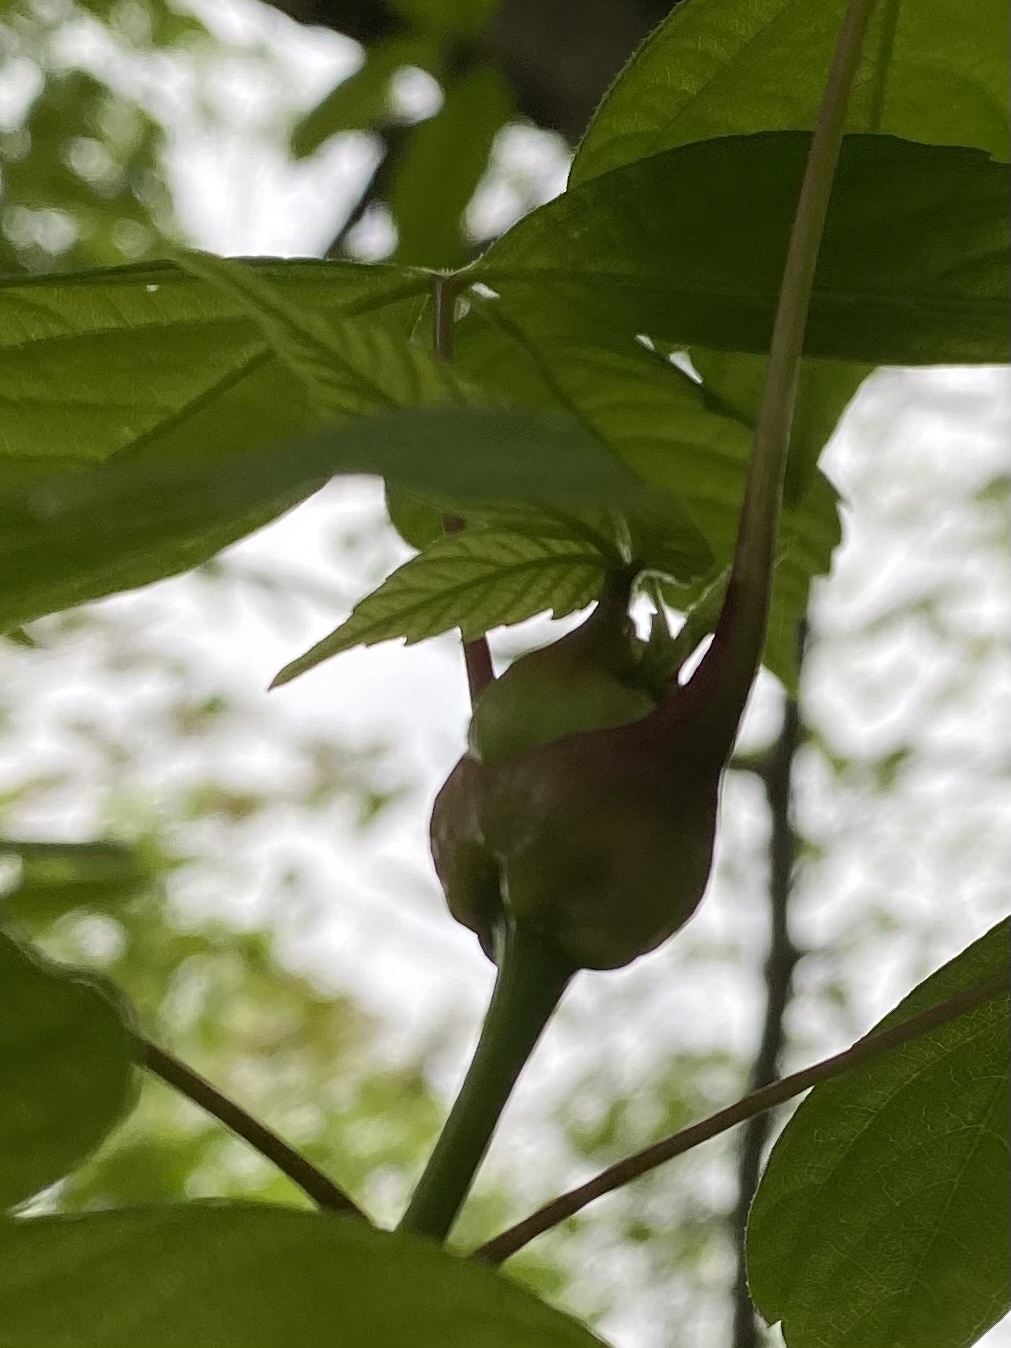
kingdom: Animalia
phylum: Arthropoda
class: Insecta
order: Diptera
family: Cecidomyiidae
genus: Contarinia
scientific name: Contarinia negundinis
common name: Boxelder budgall midge
